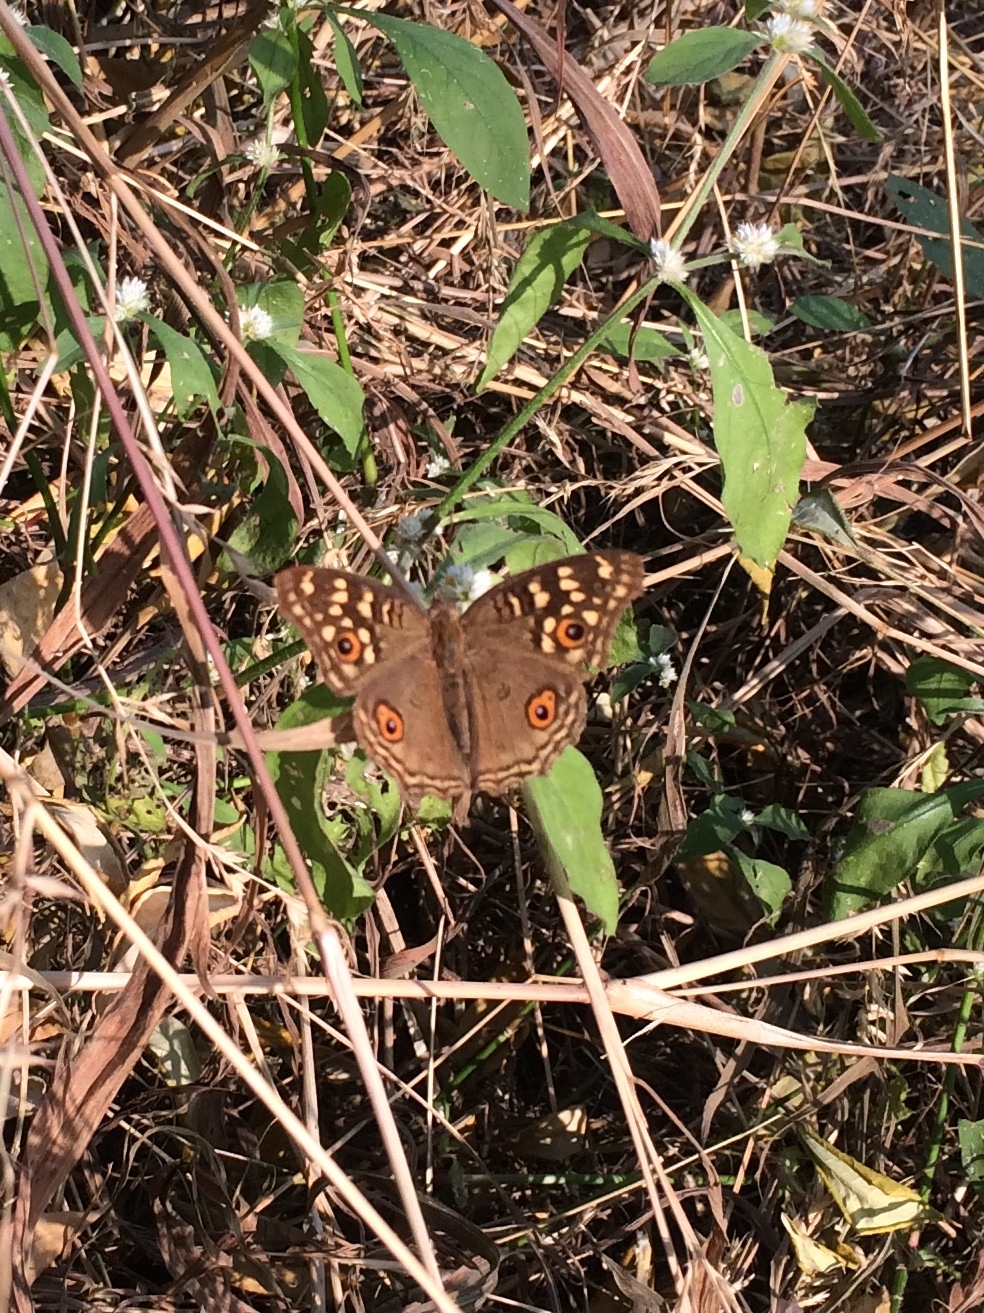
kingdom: Animalia
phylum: Arthropoda
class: Insecta
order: Lepidoptera
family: Nymphalidae
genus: Junonia
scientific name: Junonia lemonias
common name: Lemon pansy
